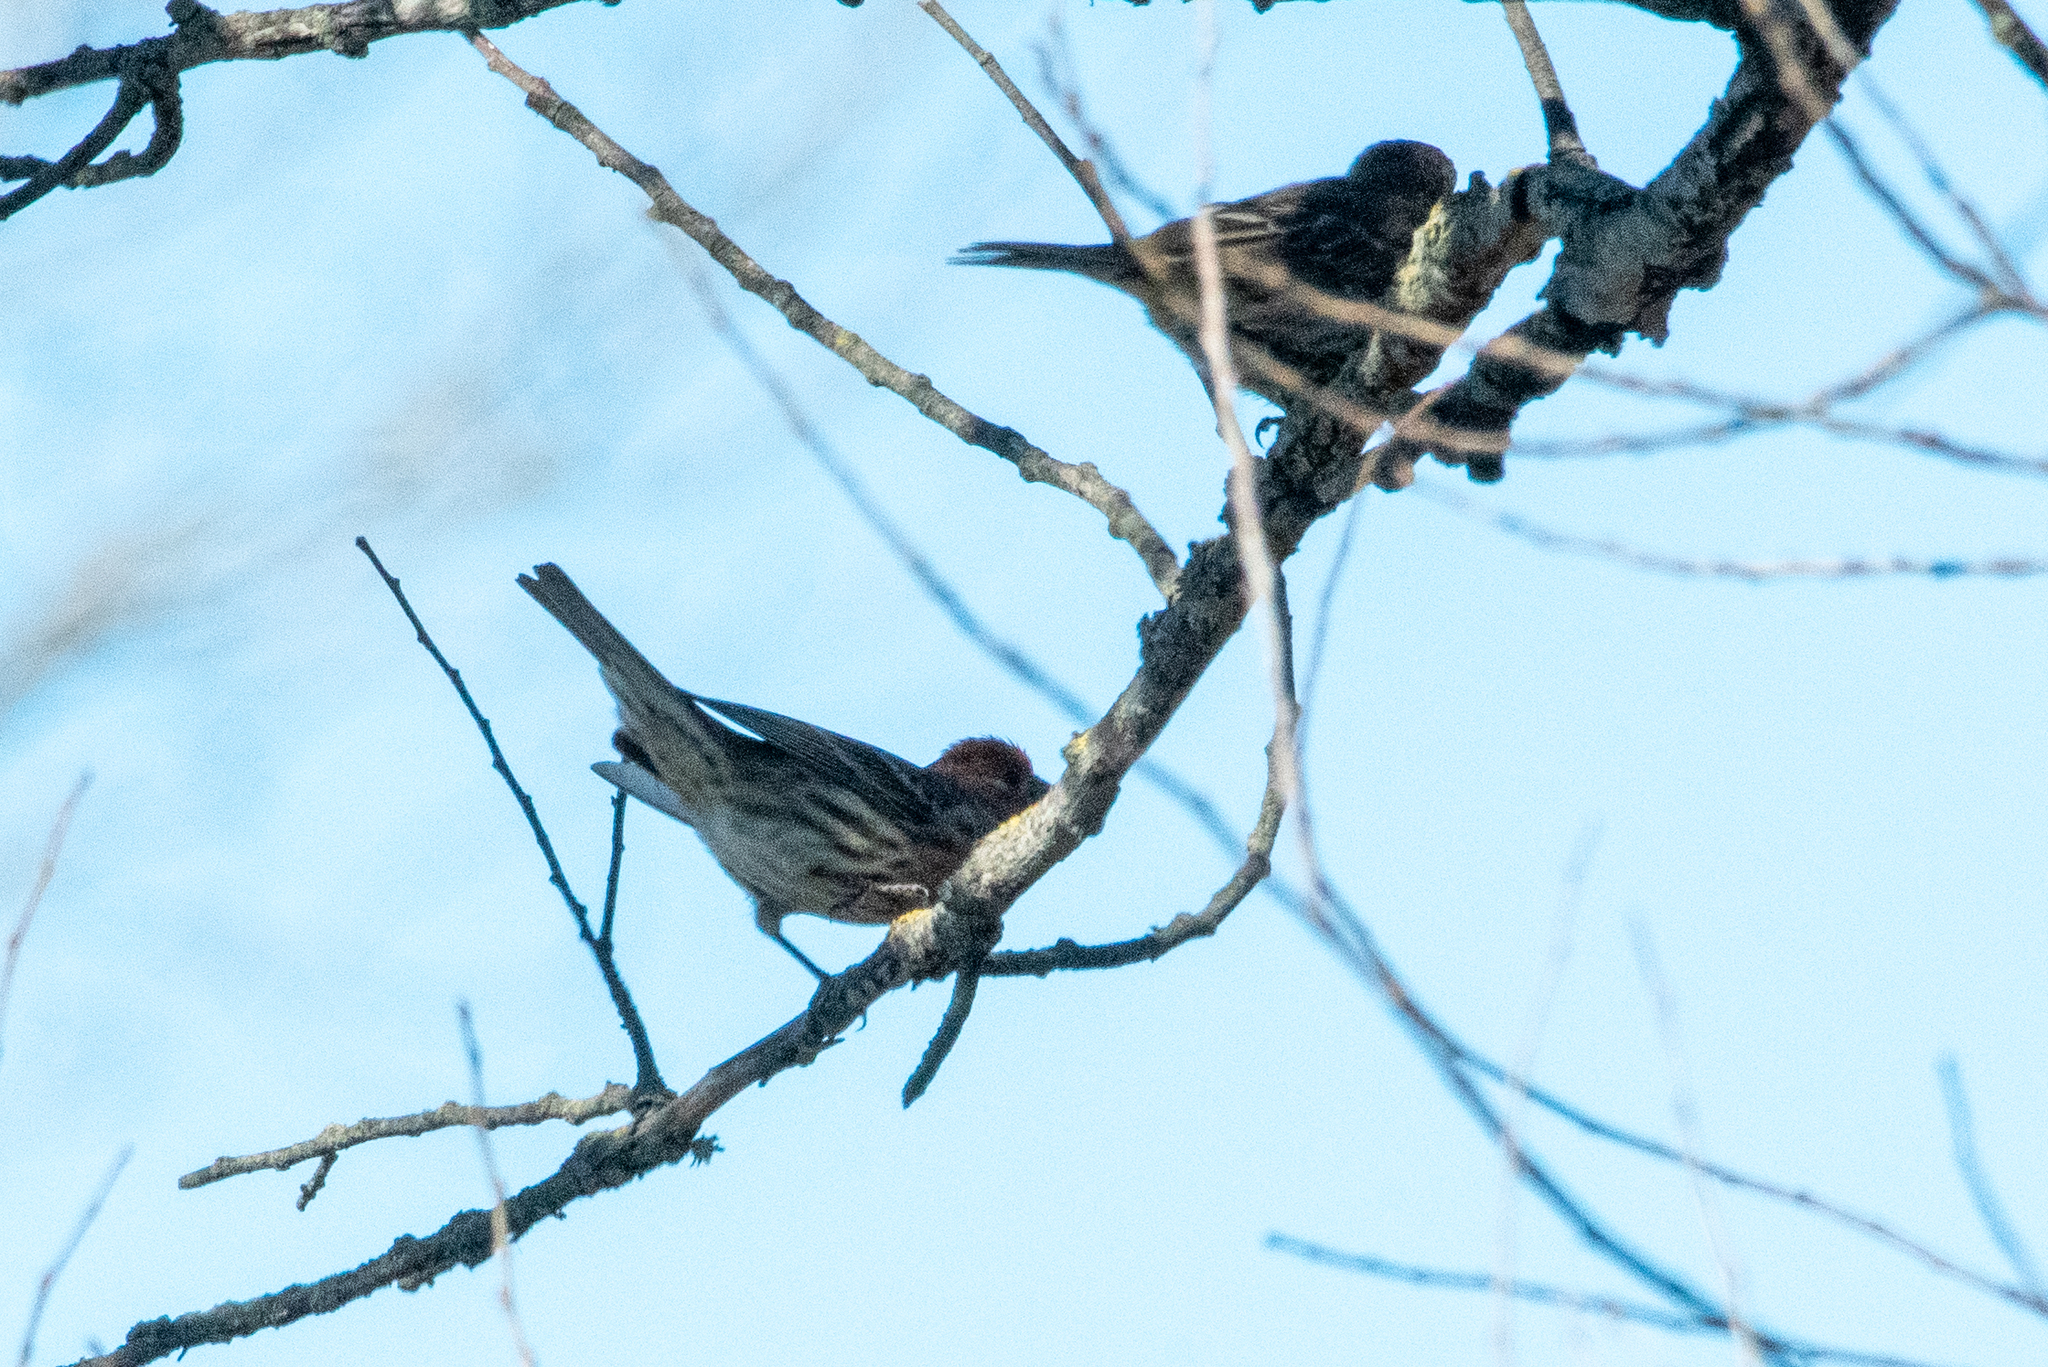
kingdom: Animalia
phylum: Chordata
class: Aves
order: Passeriformes
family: Fringillidae
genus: Haemorhous
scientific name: Haemorhous mexicanus
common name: House finch
